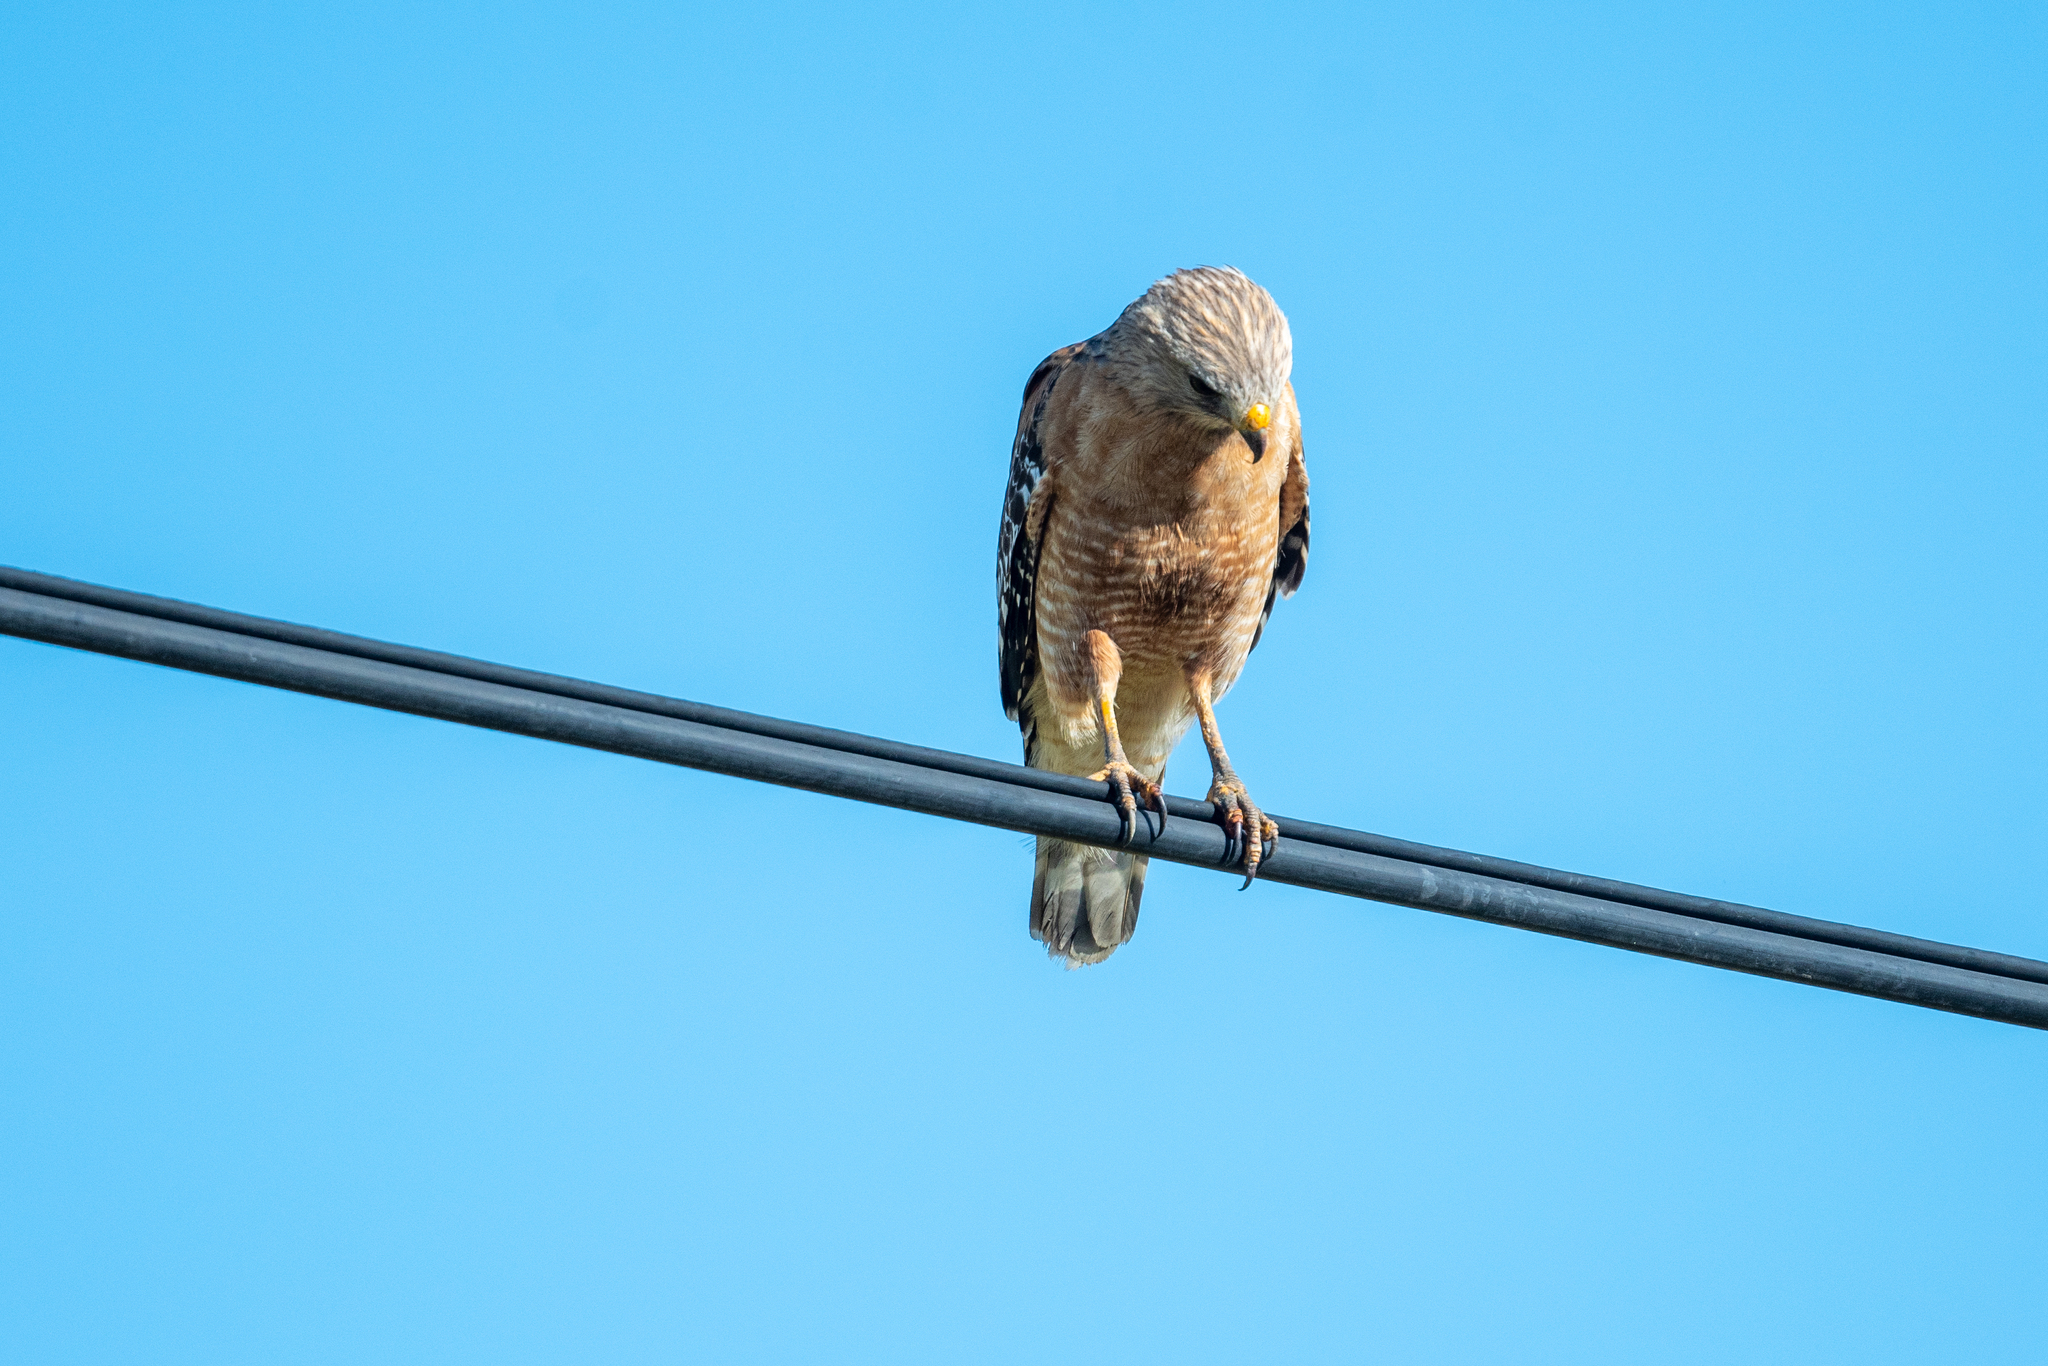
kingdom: Animalia
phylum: Chordata
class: Aves
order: Accipitriformes
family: Accipitridae
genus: Buteo
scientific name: Buteo lineatus
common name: Red-shouldered hawk
